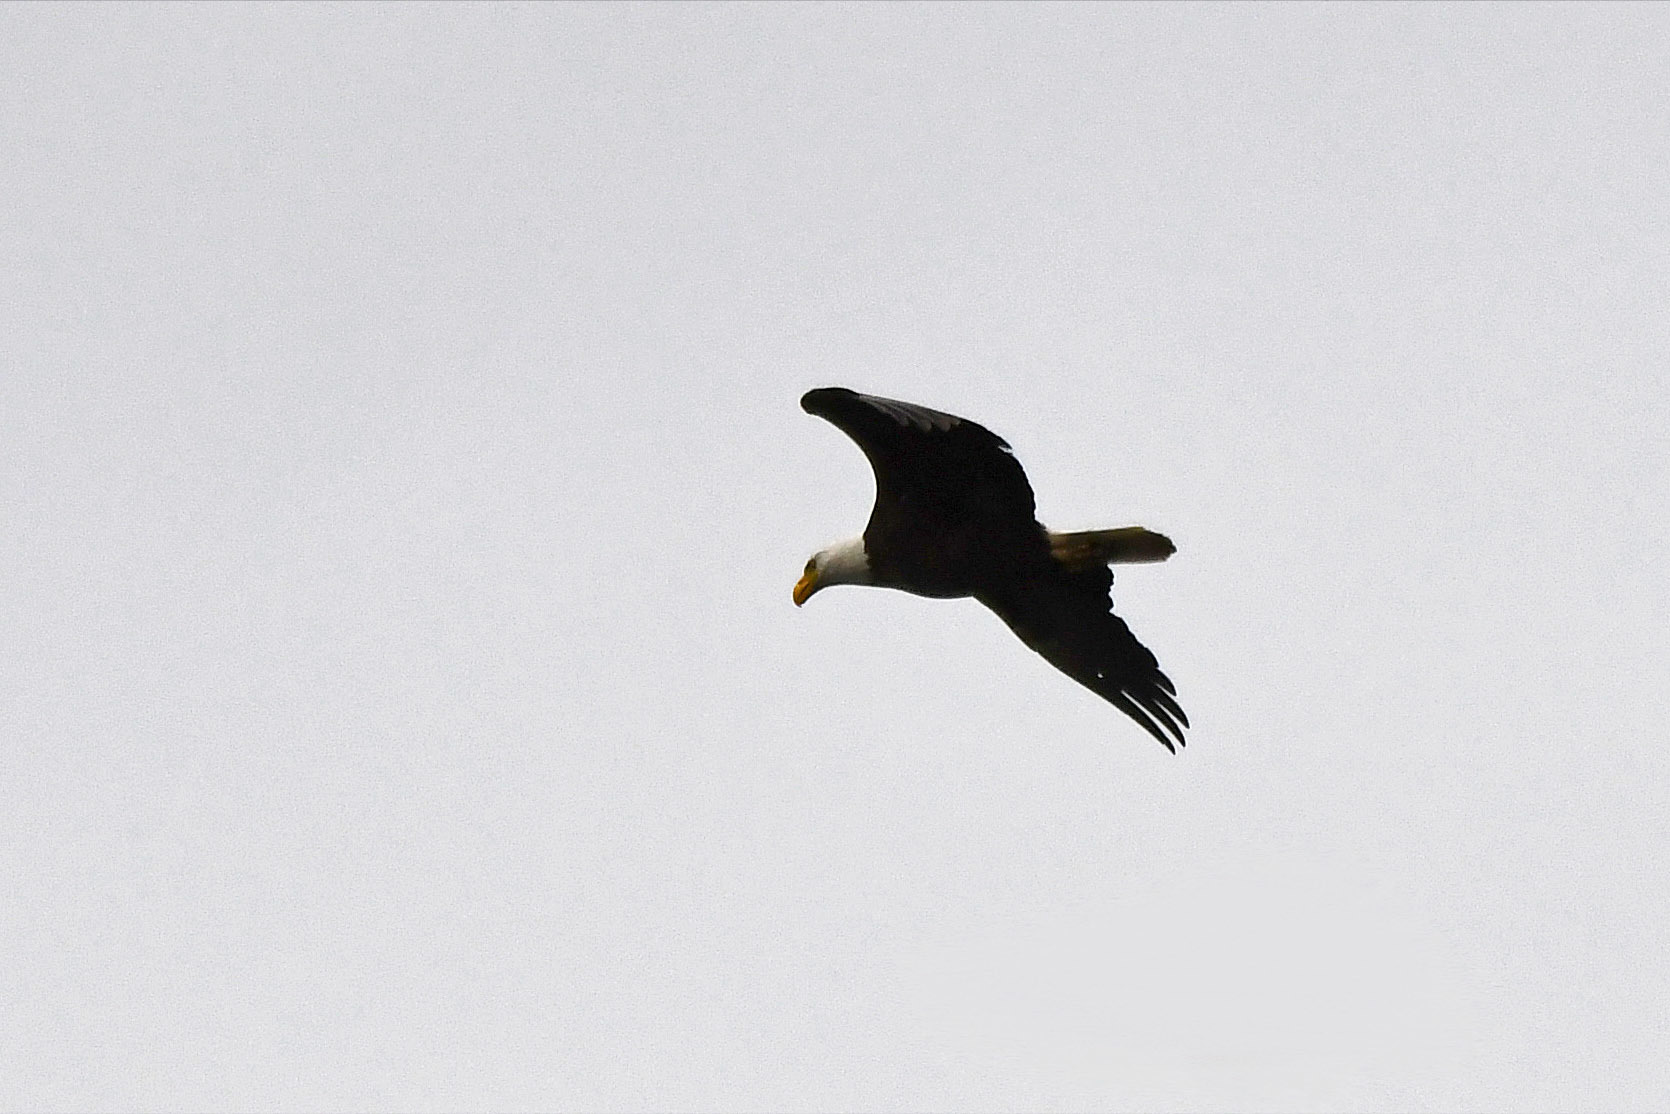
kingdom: Animalia
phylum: Chordata
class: Aves
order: Accipitriformes
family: Accipitridae
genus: Haliaeetus
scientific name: Haliaeetus leucocephalus
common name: Bald eagle
